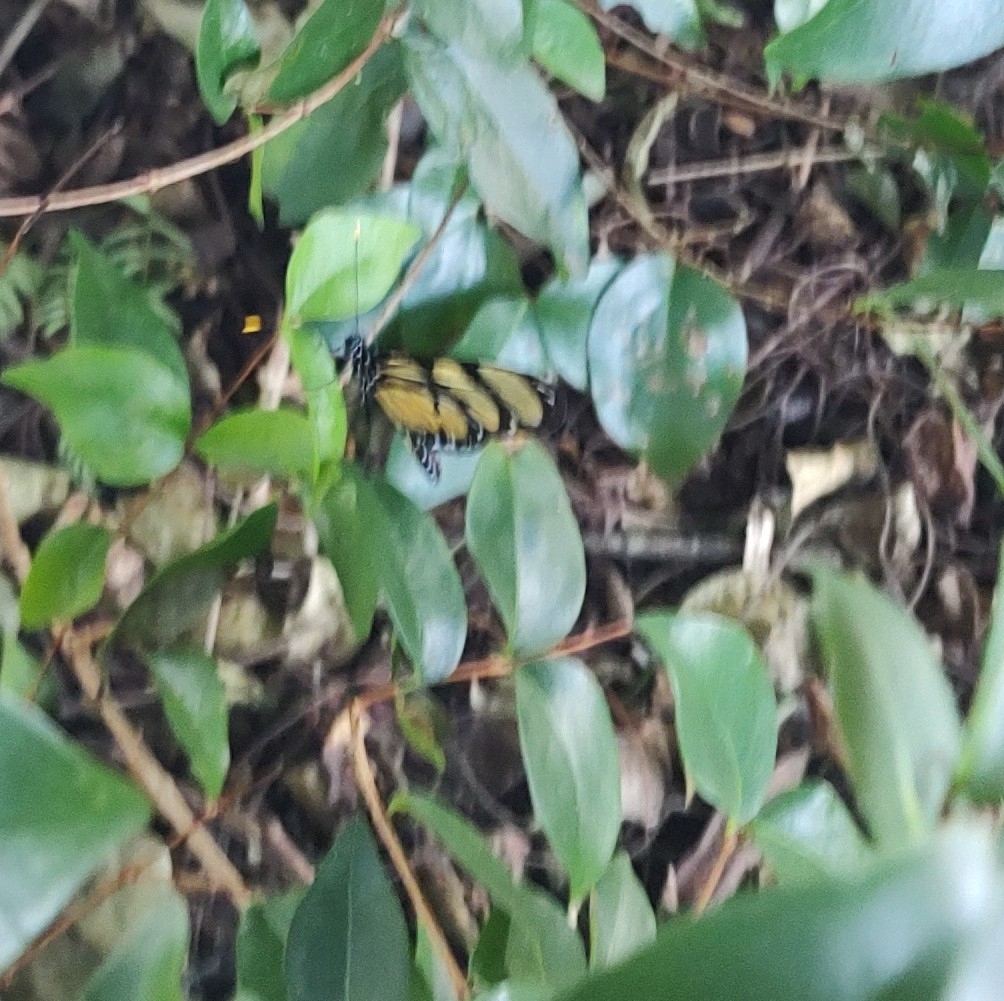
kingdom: Animalia
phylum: Arthropoda
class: Insecta
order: Lepidoptera
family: Nymphalidae
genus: Methona
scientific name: Methona themisto
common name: Themisto amberwing
